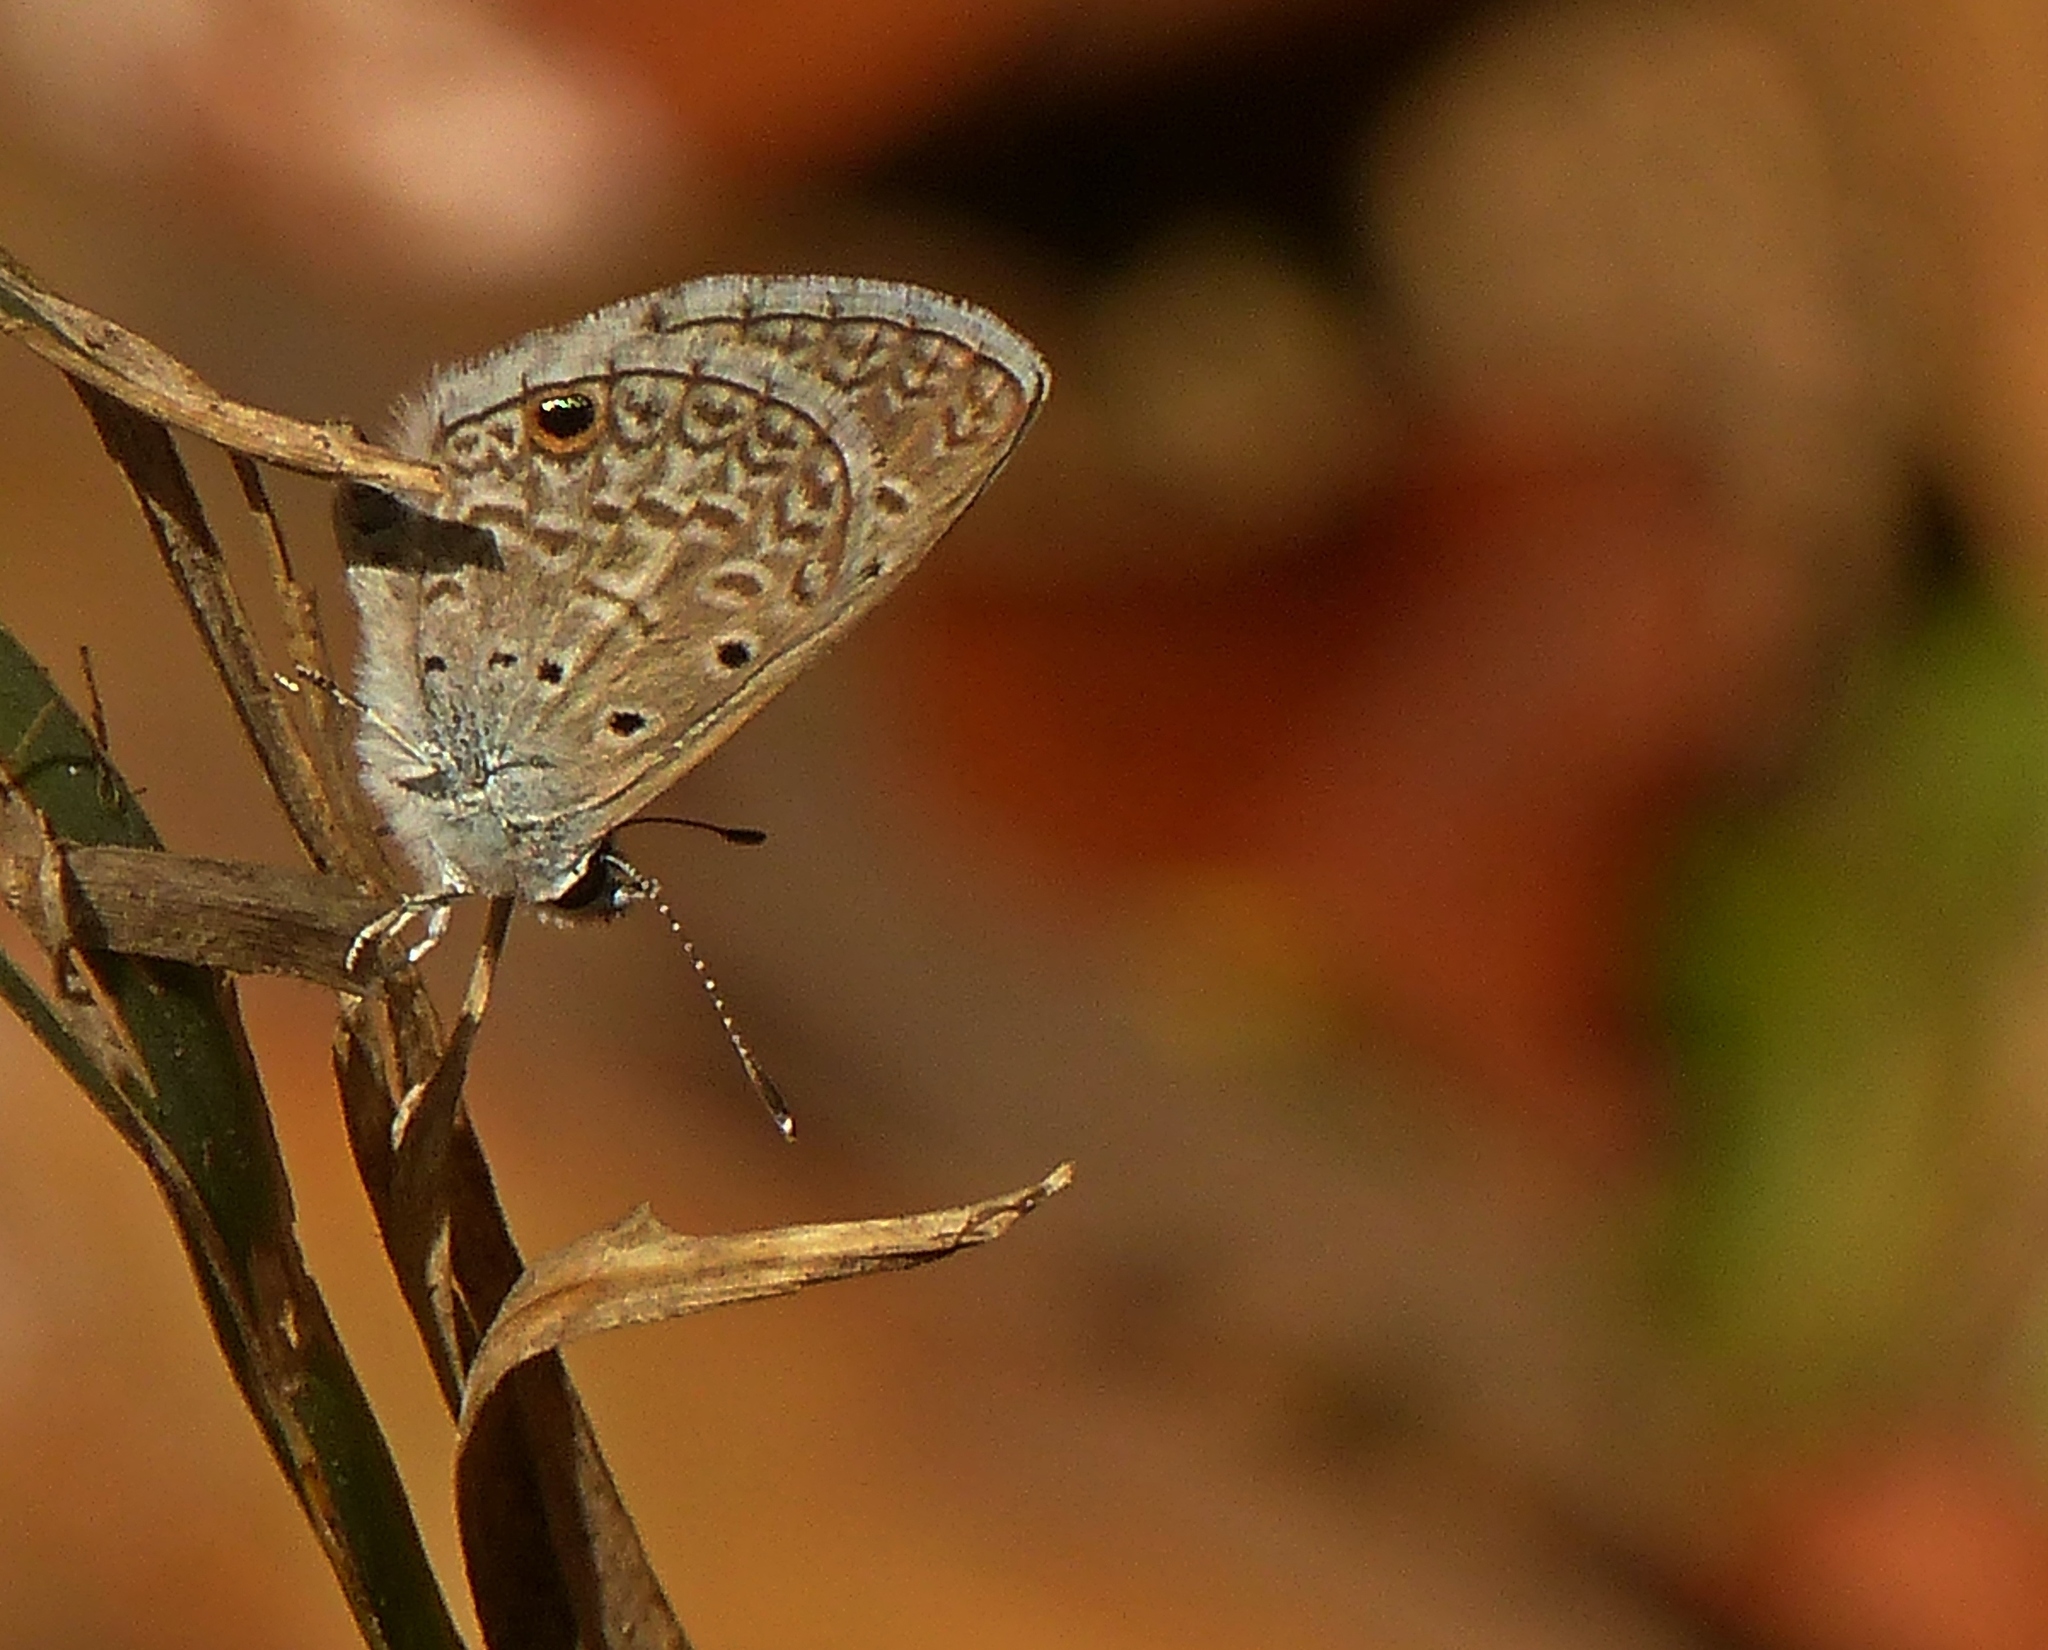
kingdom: Animalia
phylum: Arthropoda
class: Insecta
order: Lepidoptera
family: Lycaenidae
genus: Hemiargus
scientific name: Hemiargus hanno
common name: Common blue
